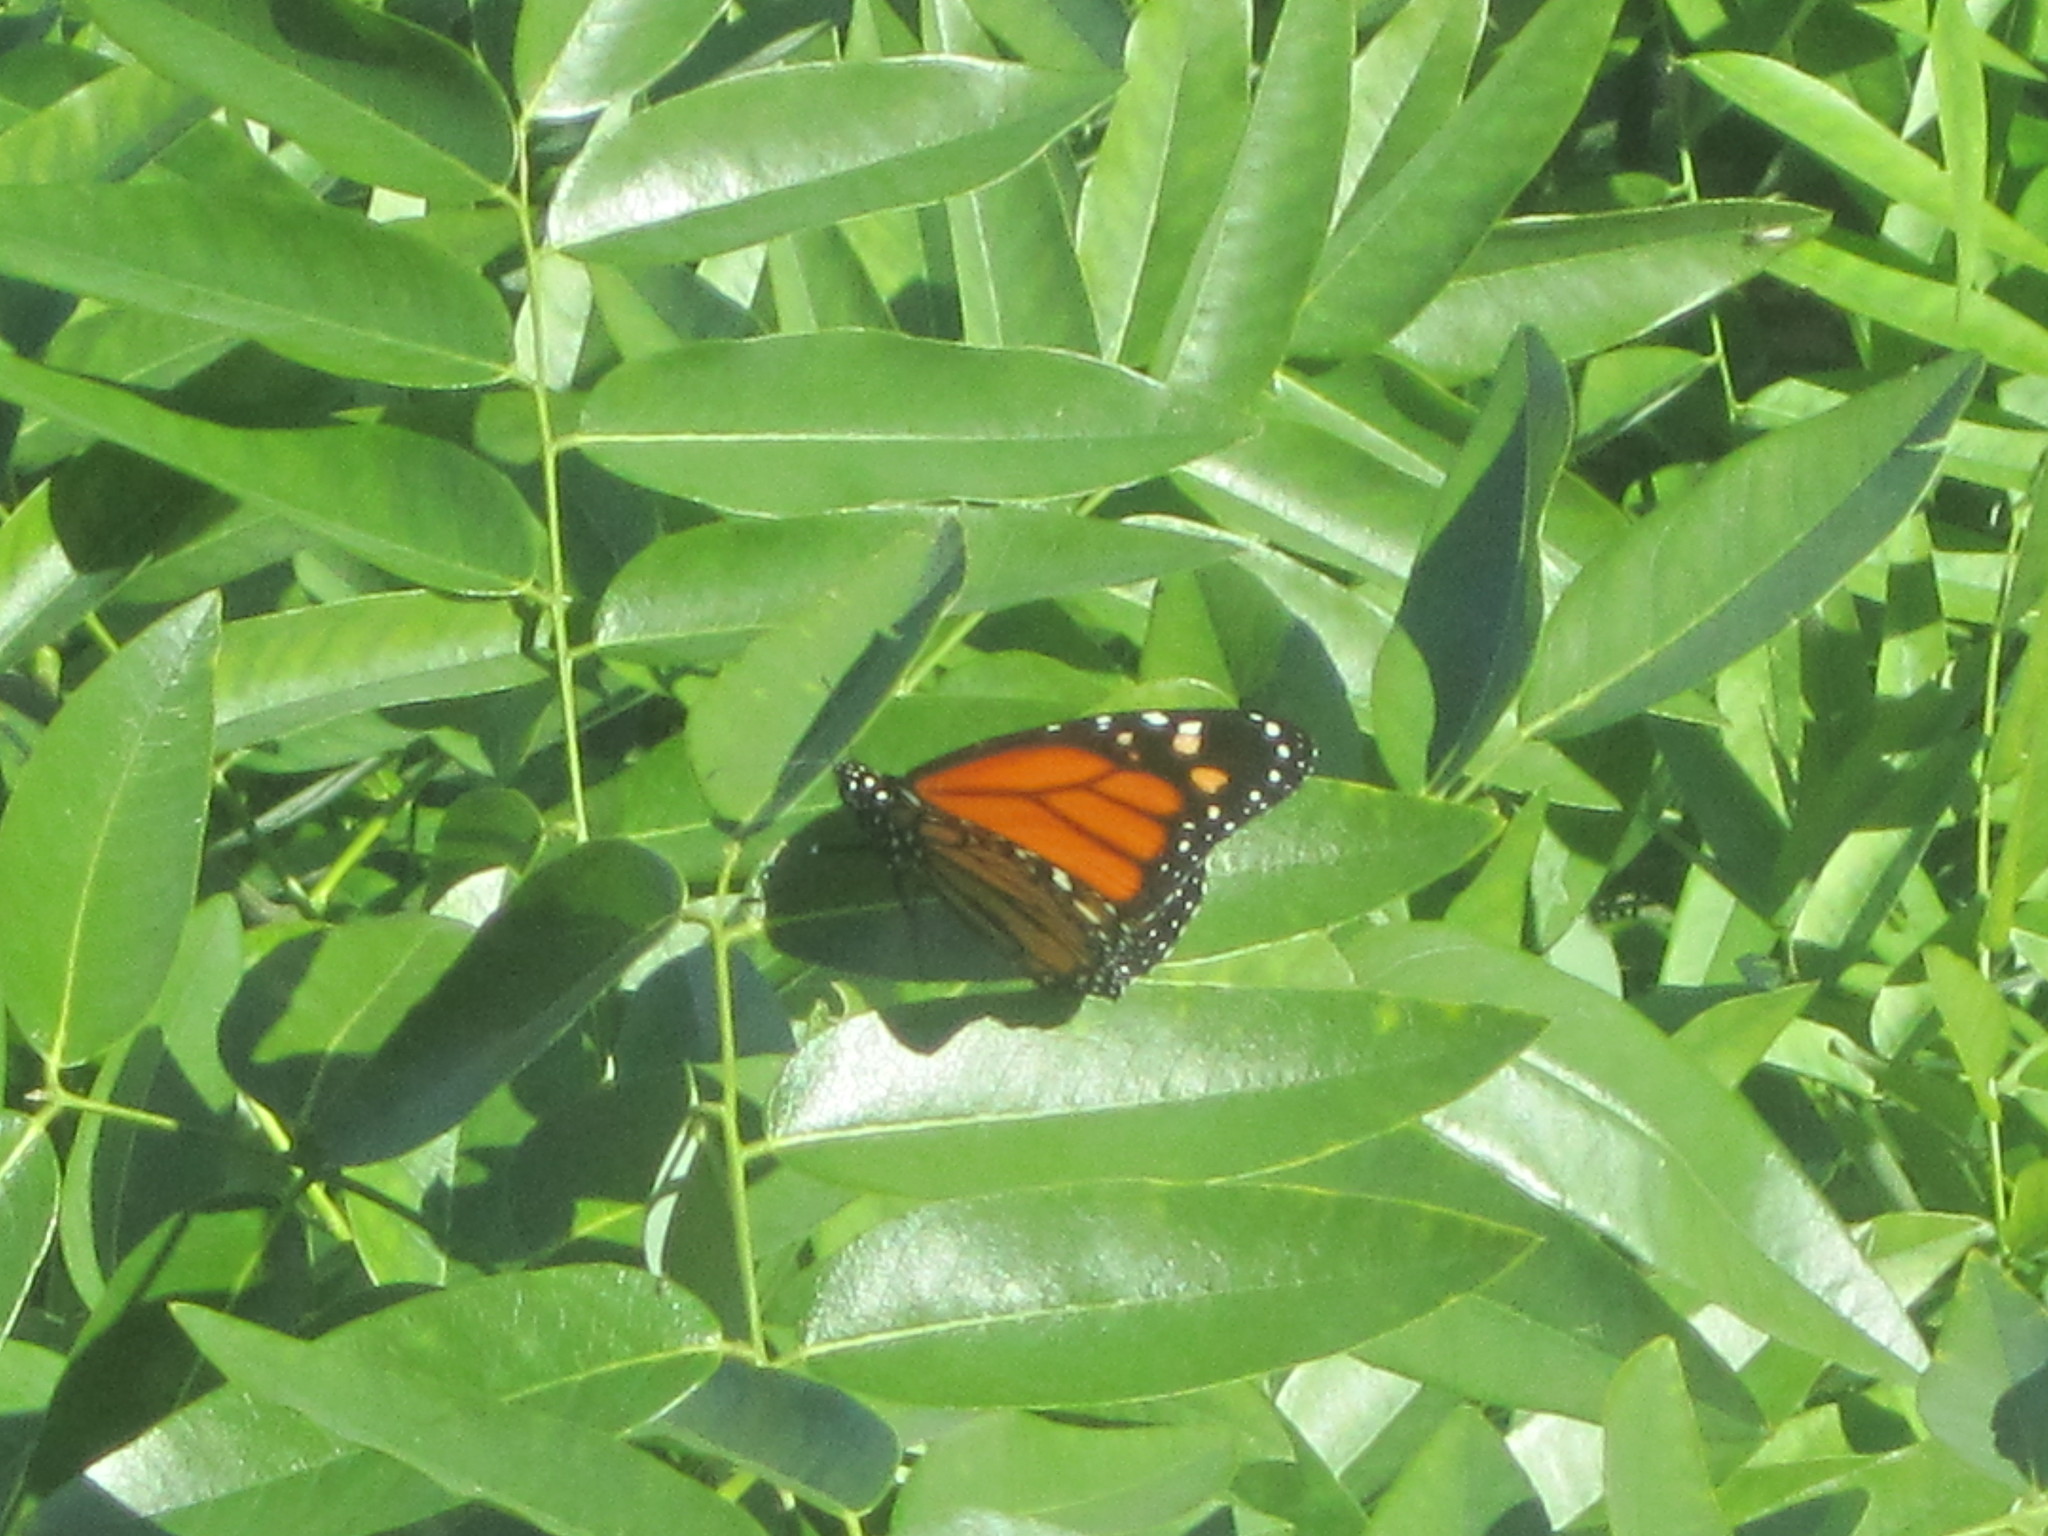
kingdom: Animalia
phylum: Arthropoda
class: Insecta
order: Lepidoptera
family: Nymphalidae
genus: Danaus
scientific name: Danaus plexippus
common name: Monarch
